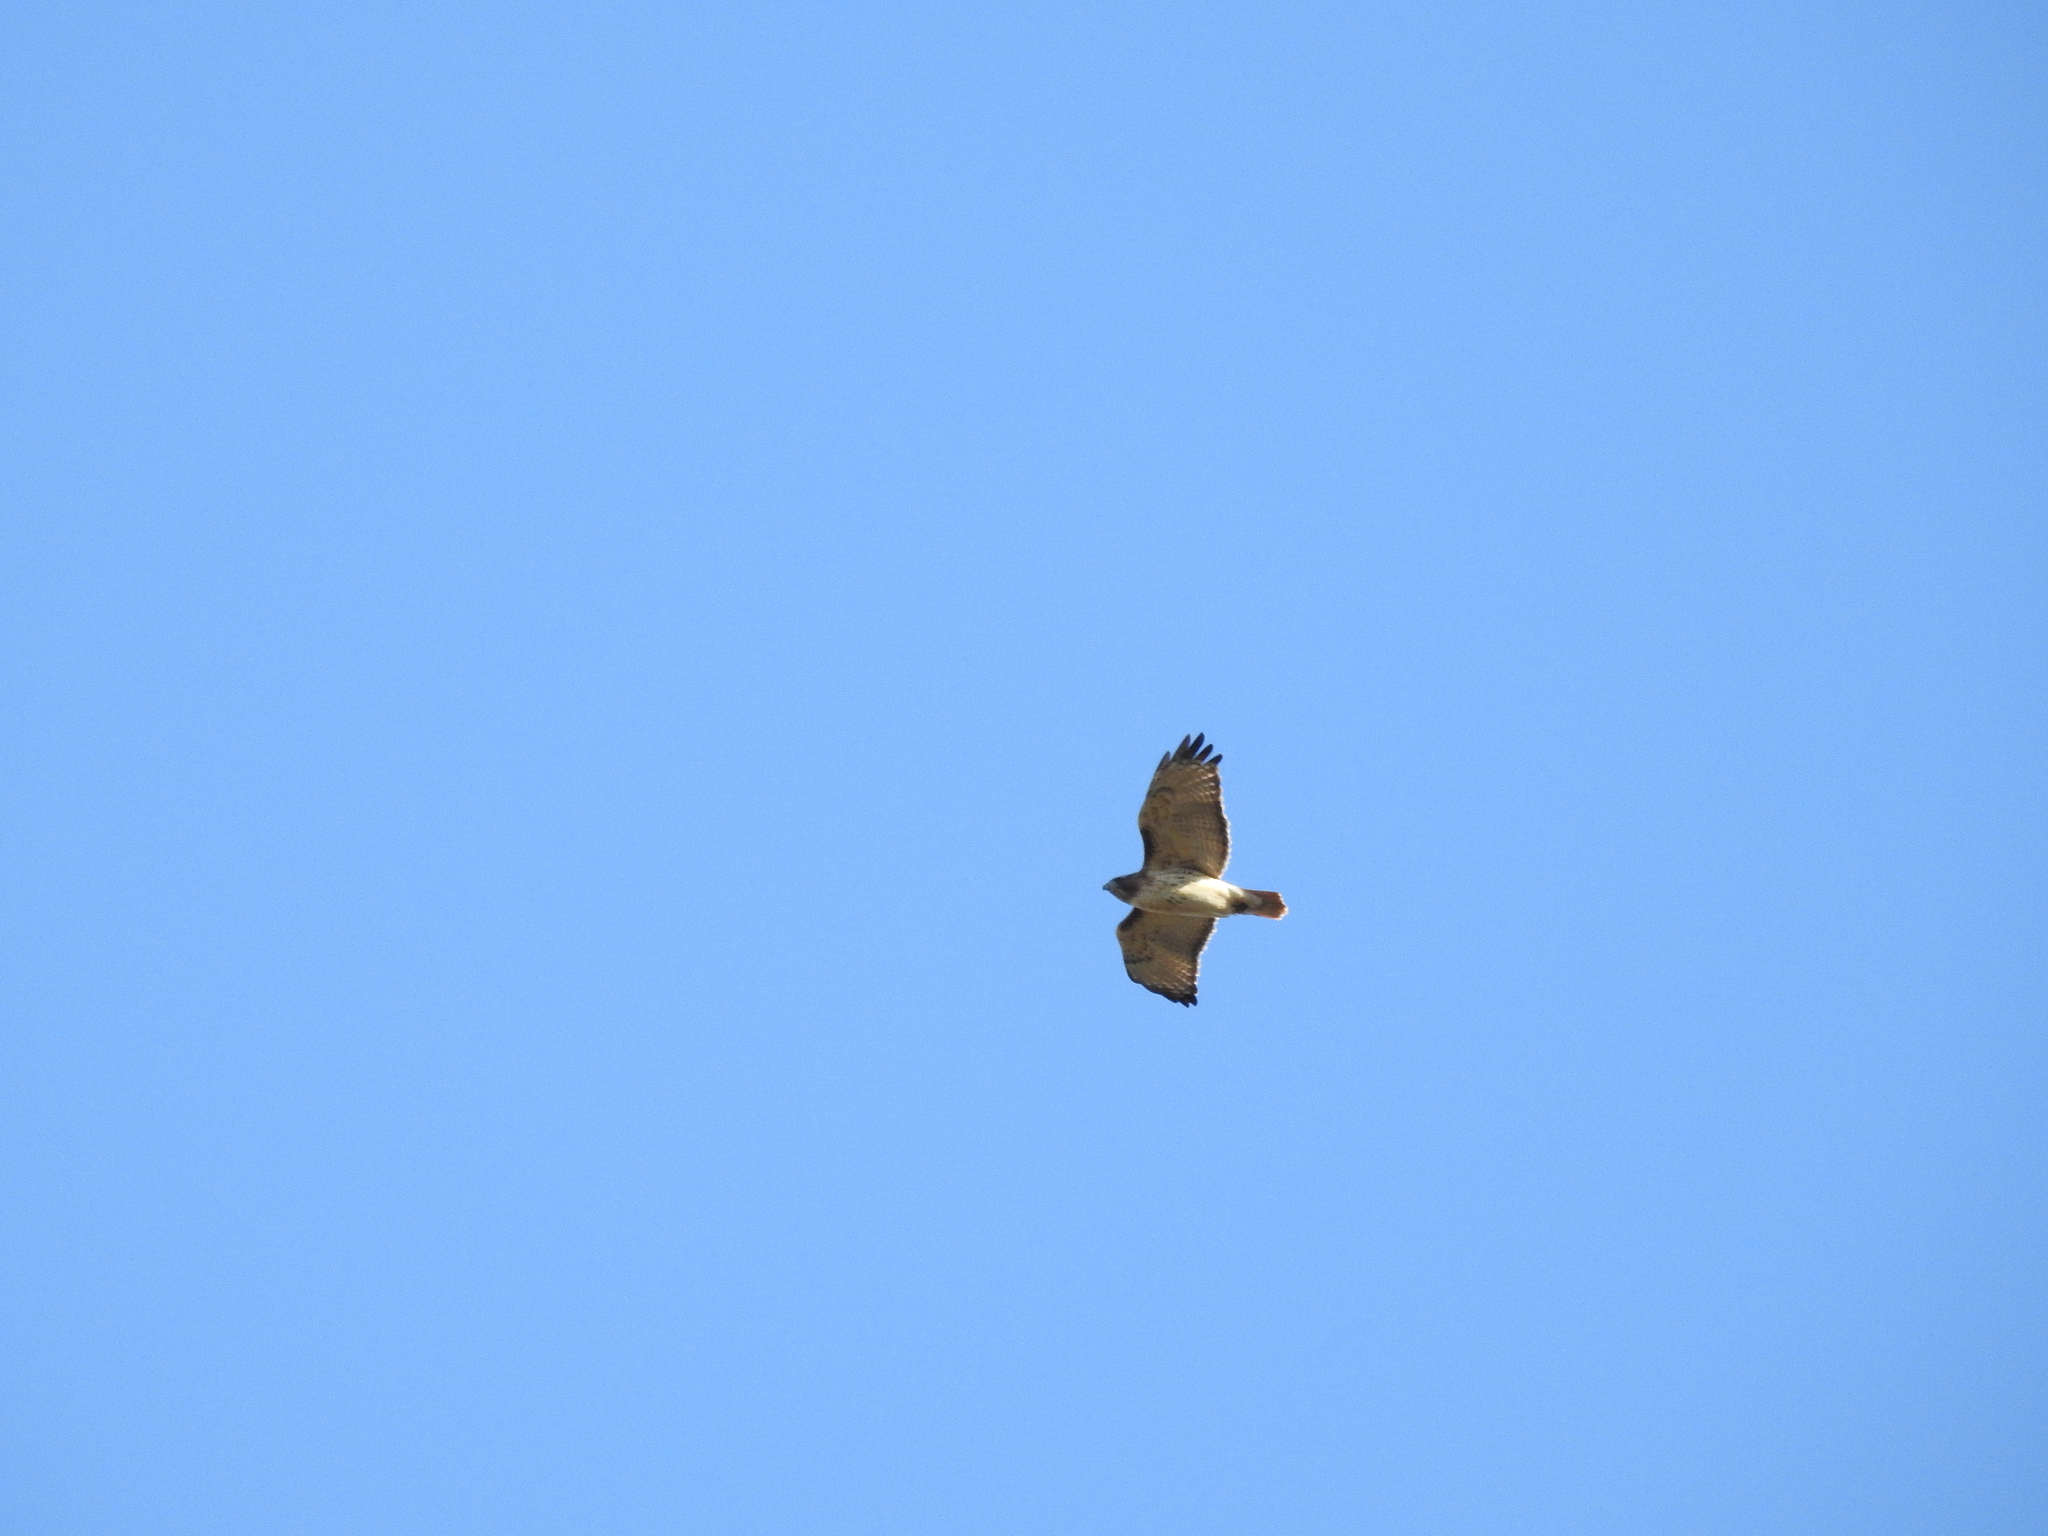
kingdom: Animalia
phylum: Chordata
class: Aves
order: Accipitriformes
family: Accipitridae
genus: Buteo
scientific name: Buteo jamaicensis
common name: Red-tailed hawk
